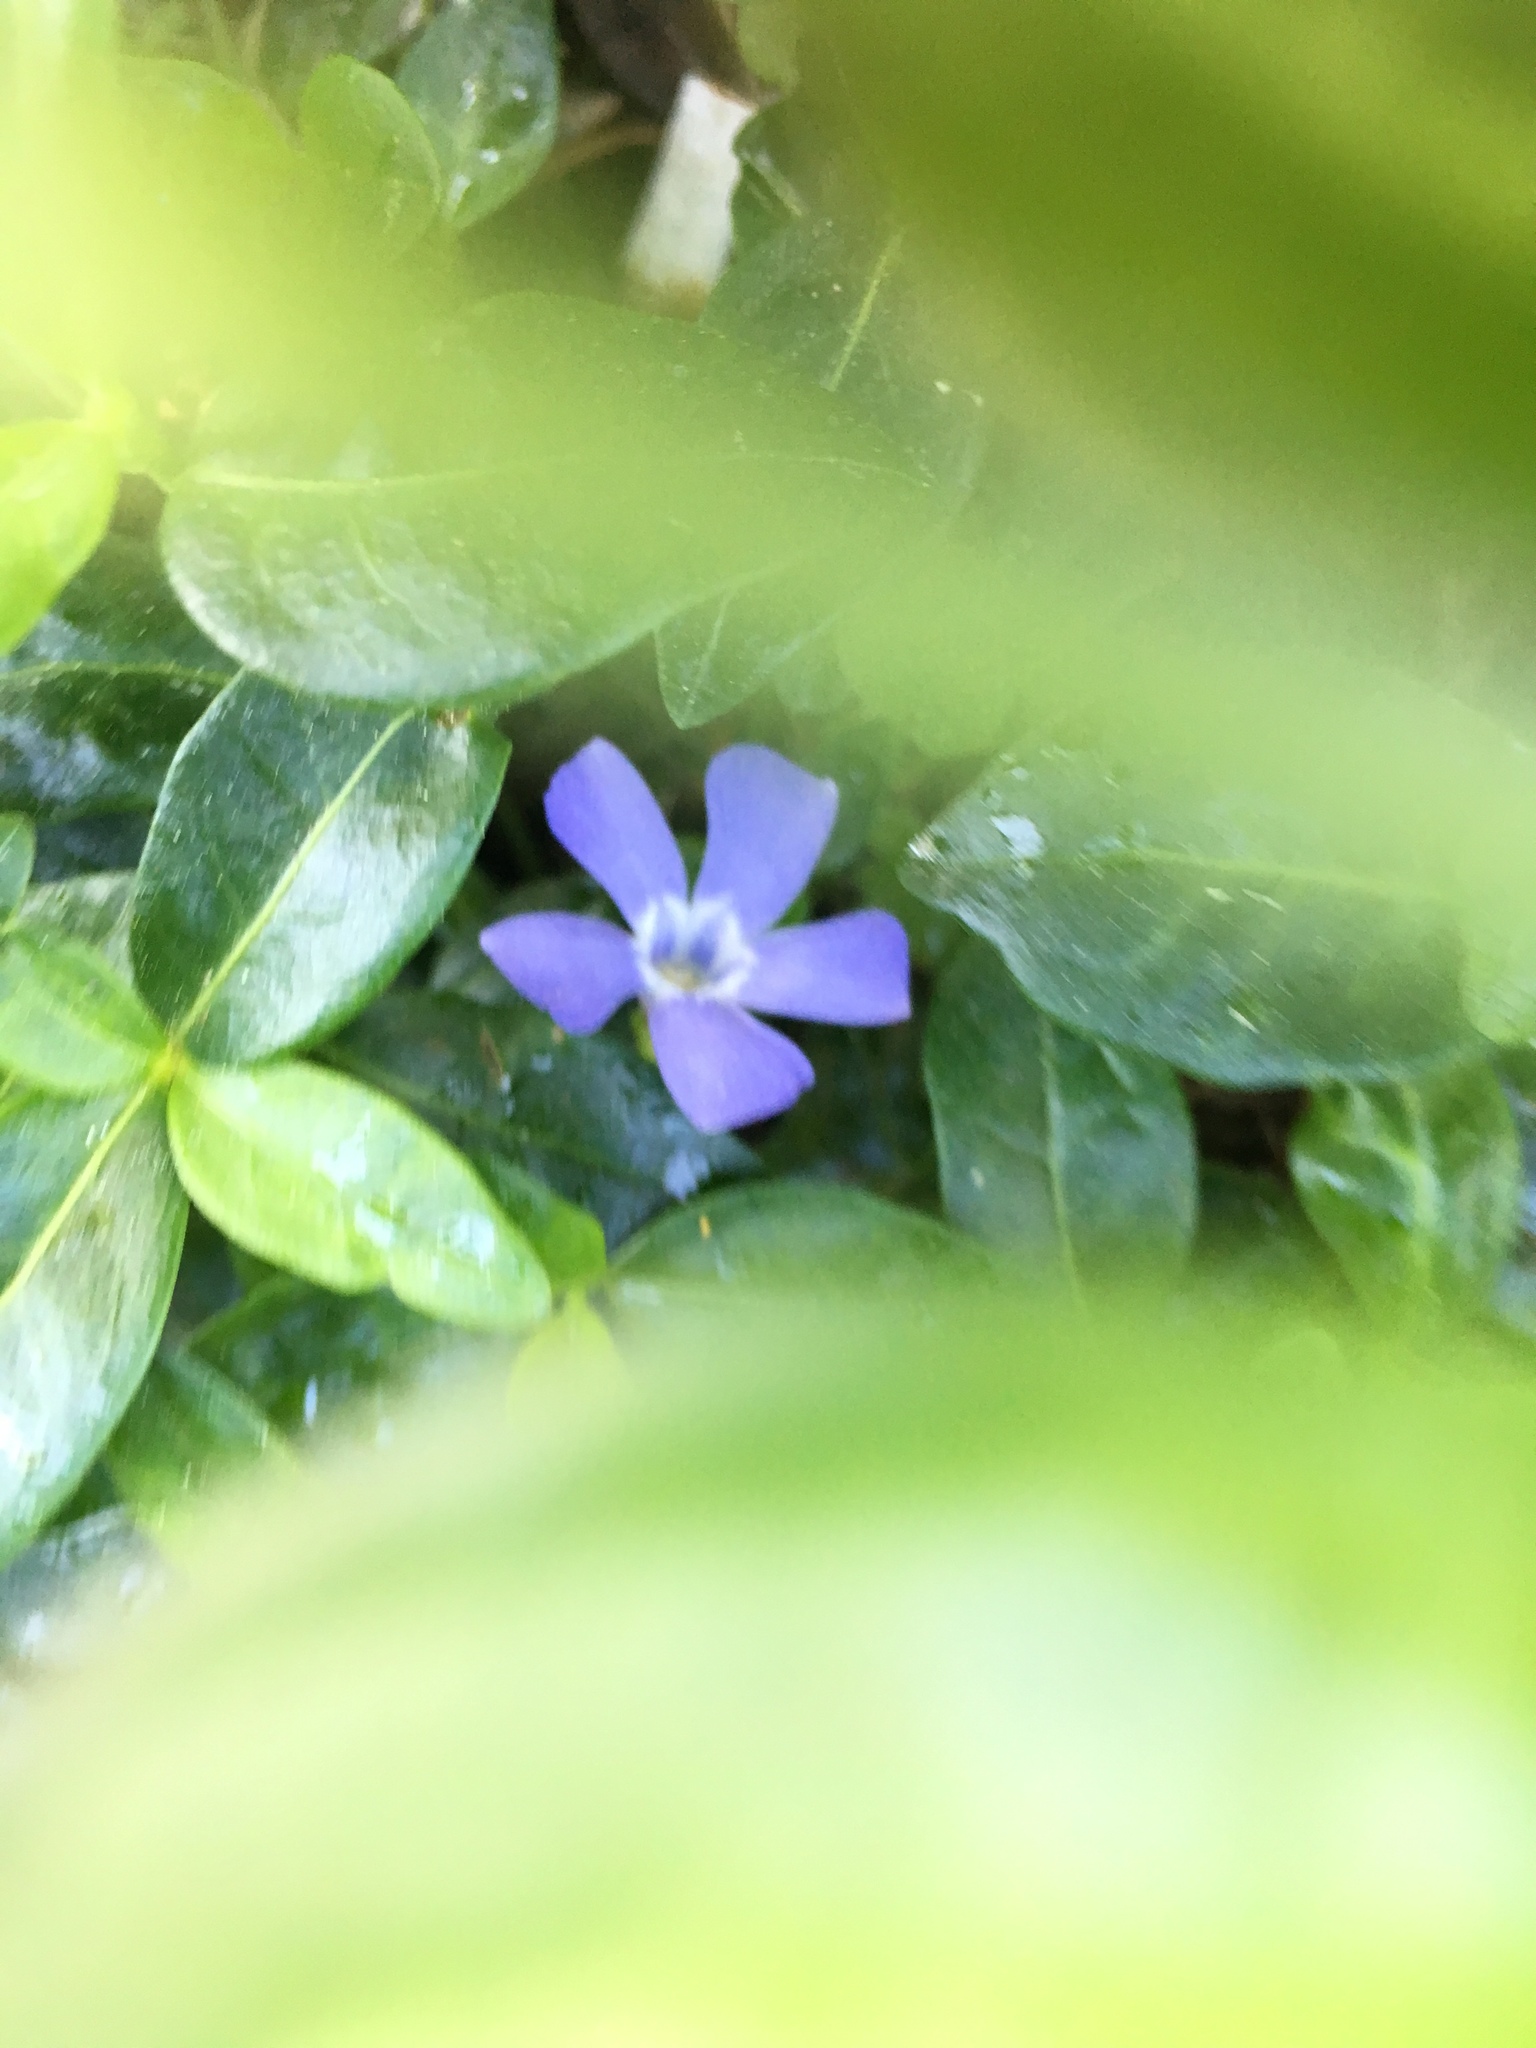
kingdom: Plantae
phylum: Tracheophyta
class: Magnoliopsida
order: Gentianales
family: Apocynaceae
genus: Vinca
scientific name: Vinca minor
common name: Lesser periwinkle
